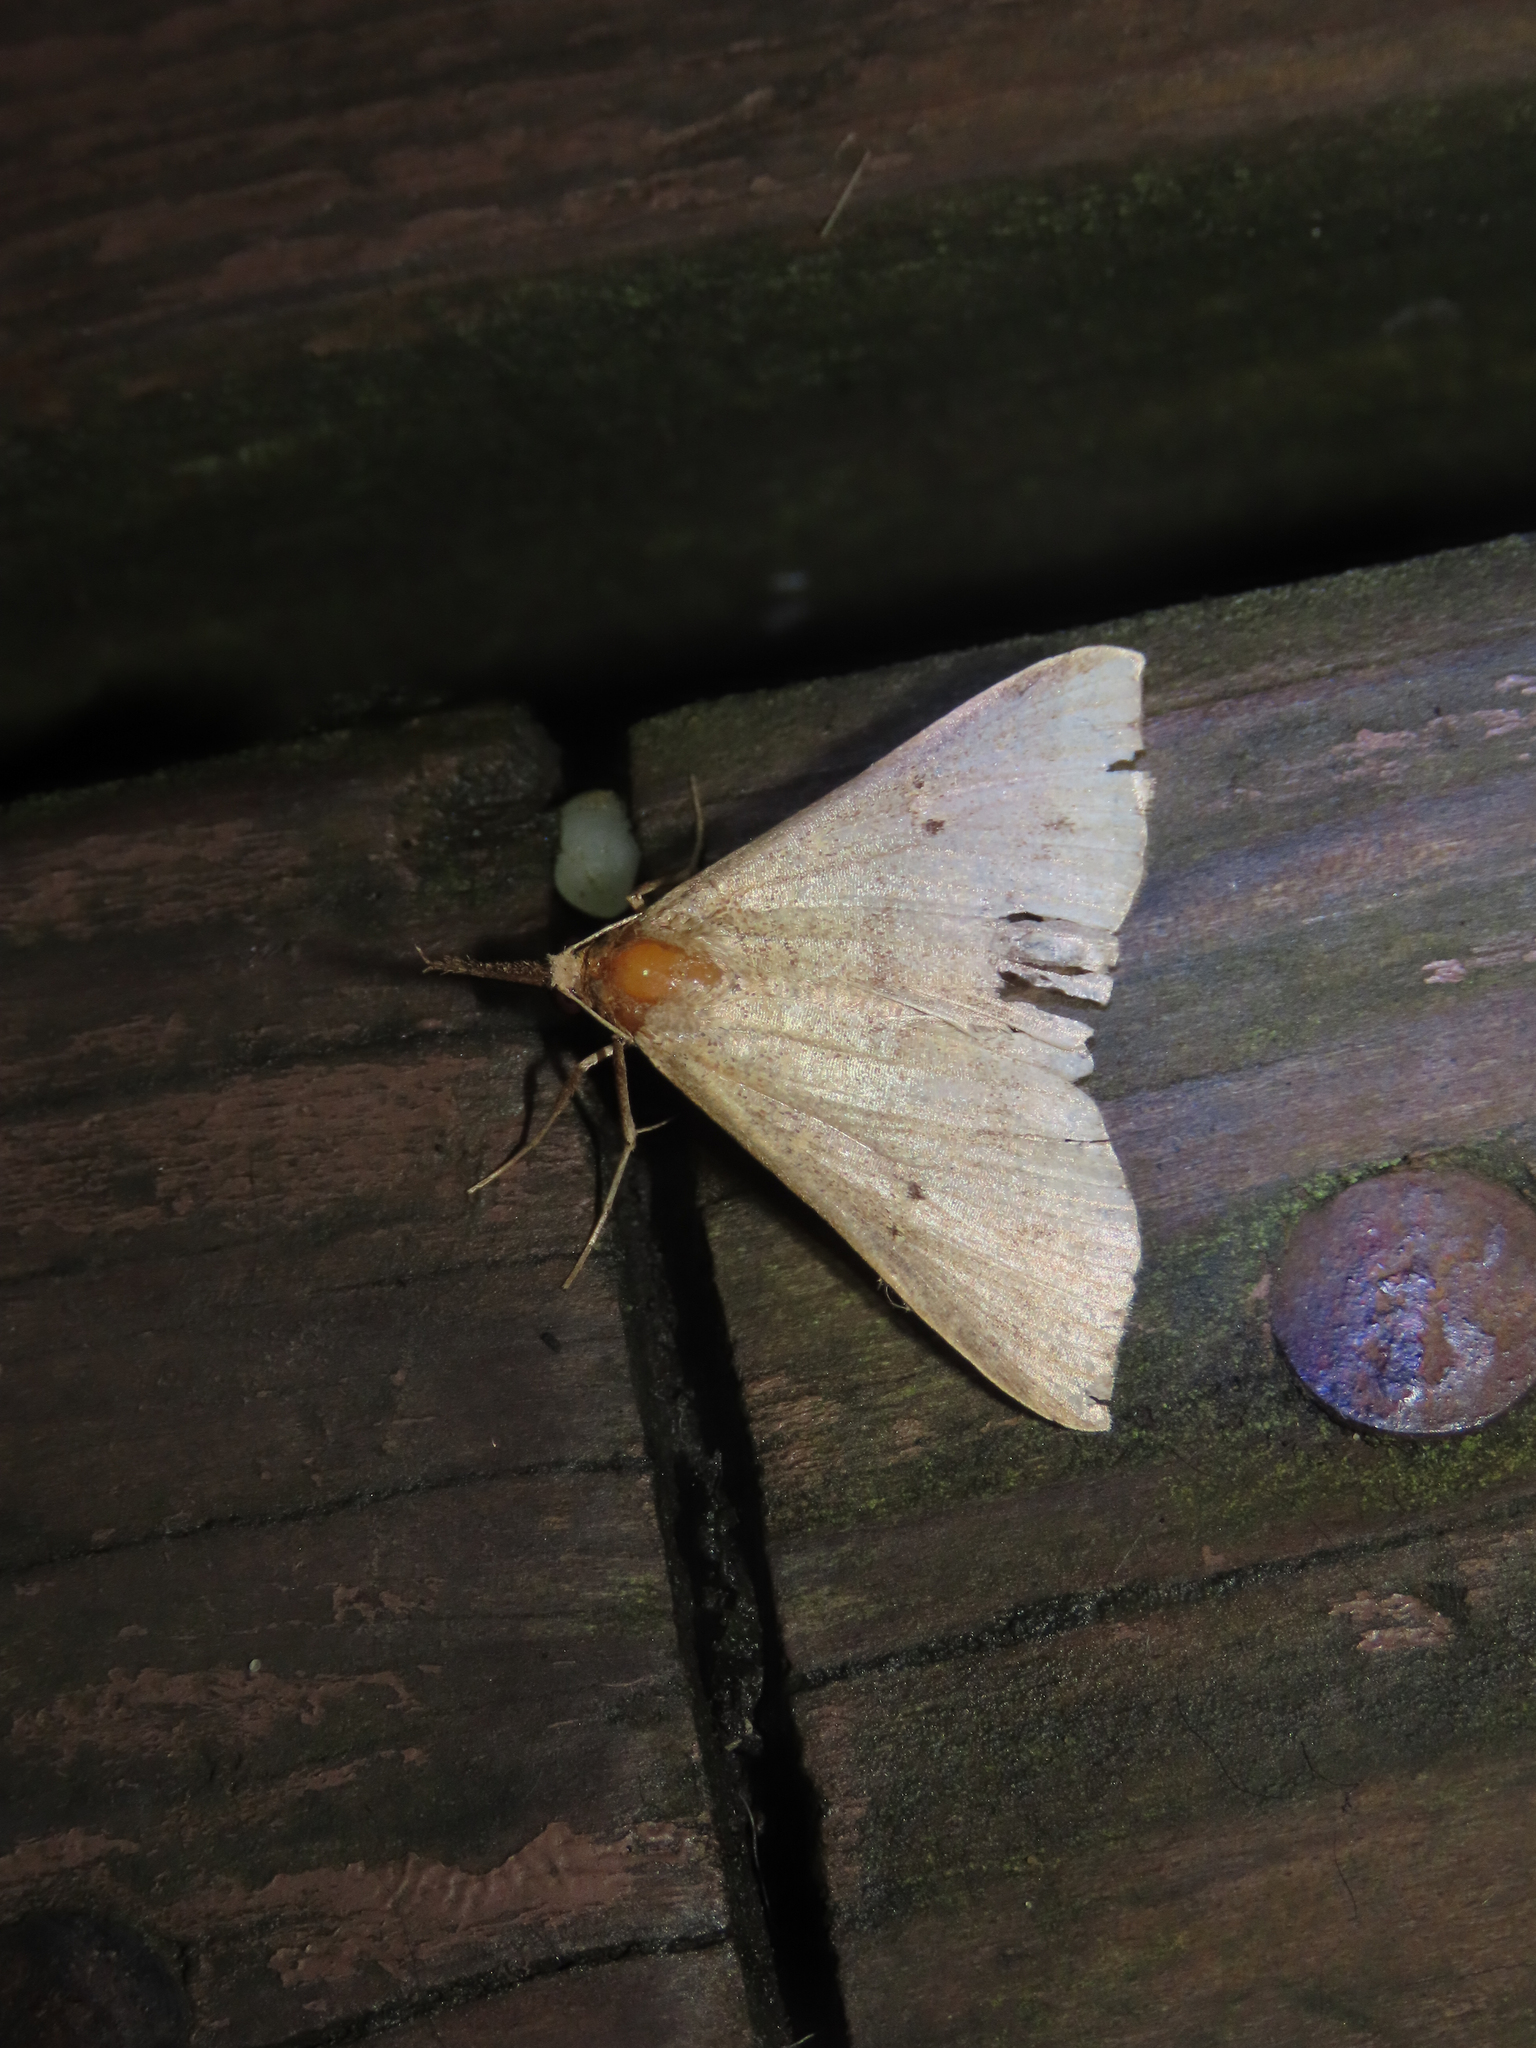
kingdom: Animalia
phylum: Arthropoda
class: Insecta
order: Lepidoptera
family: Erebidae
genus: Renia
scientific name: Renia salusalis
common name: Dotted renia moth
